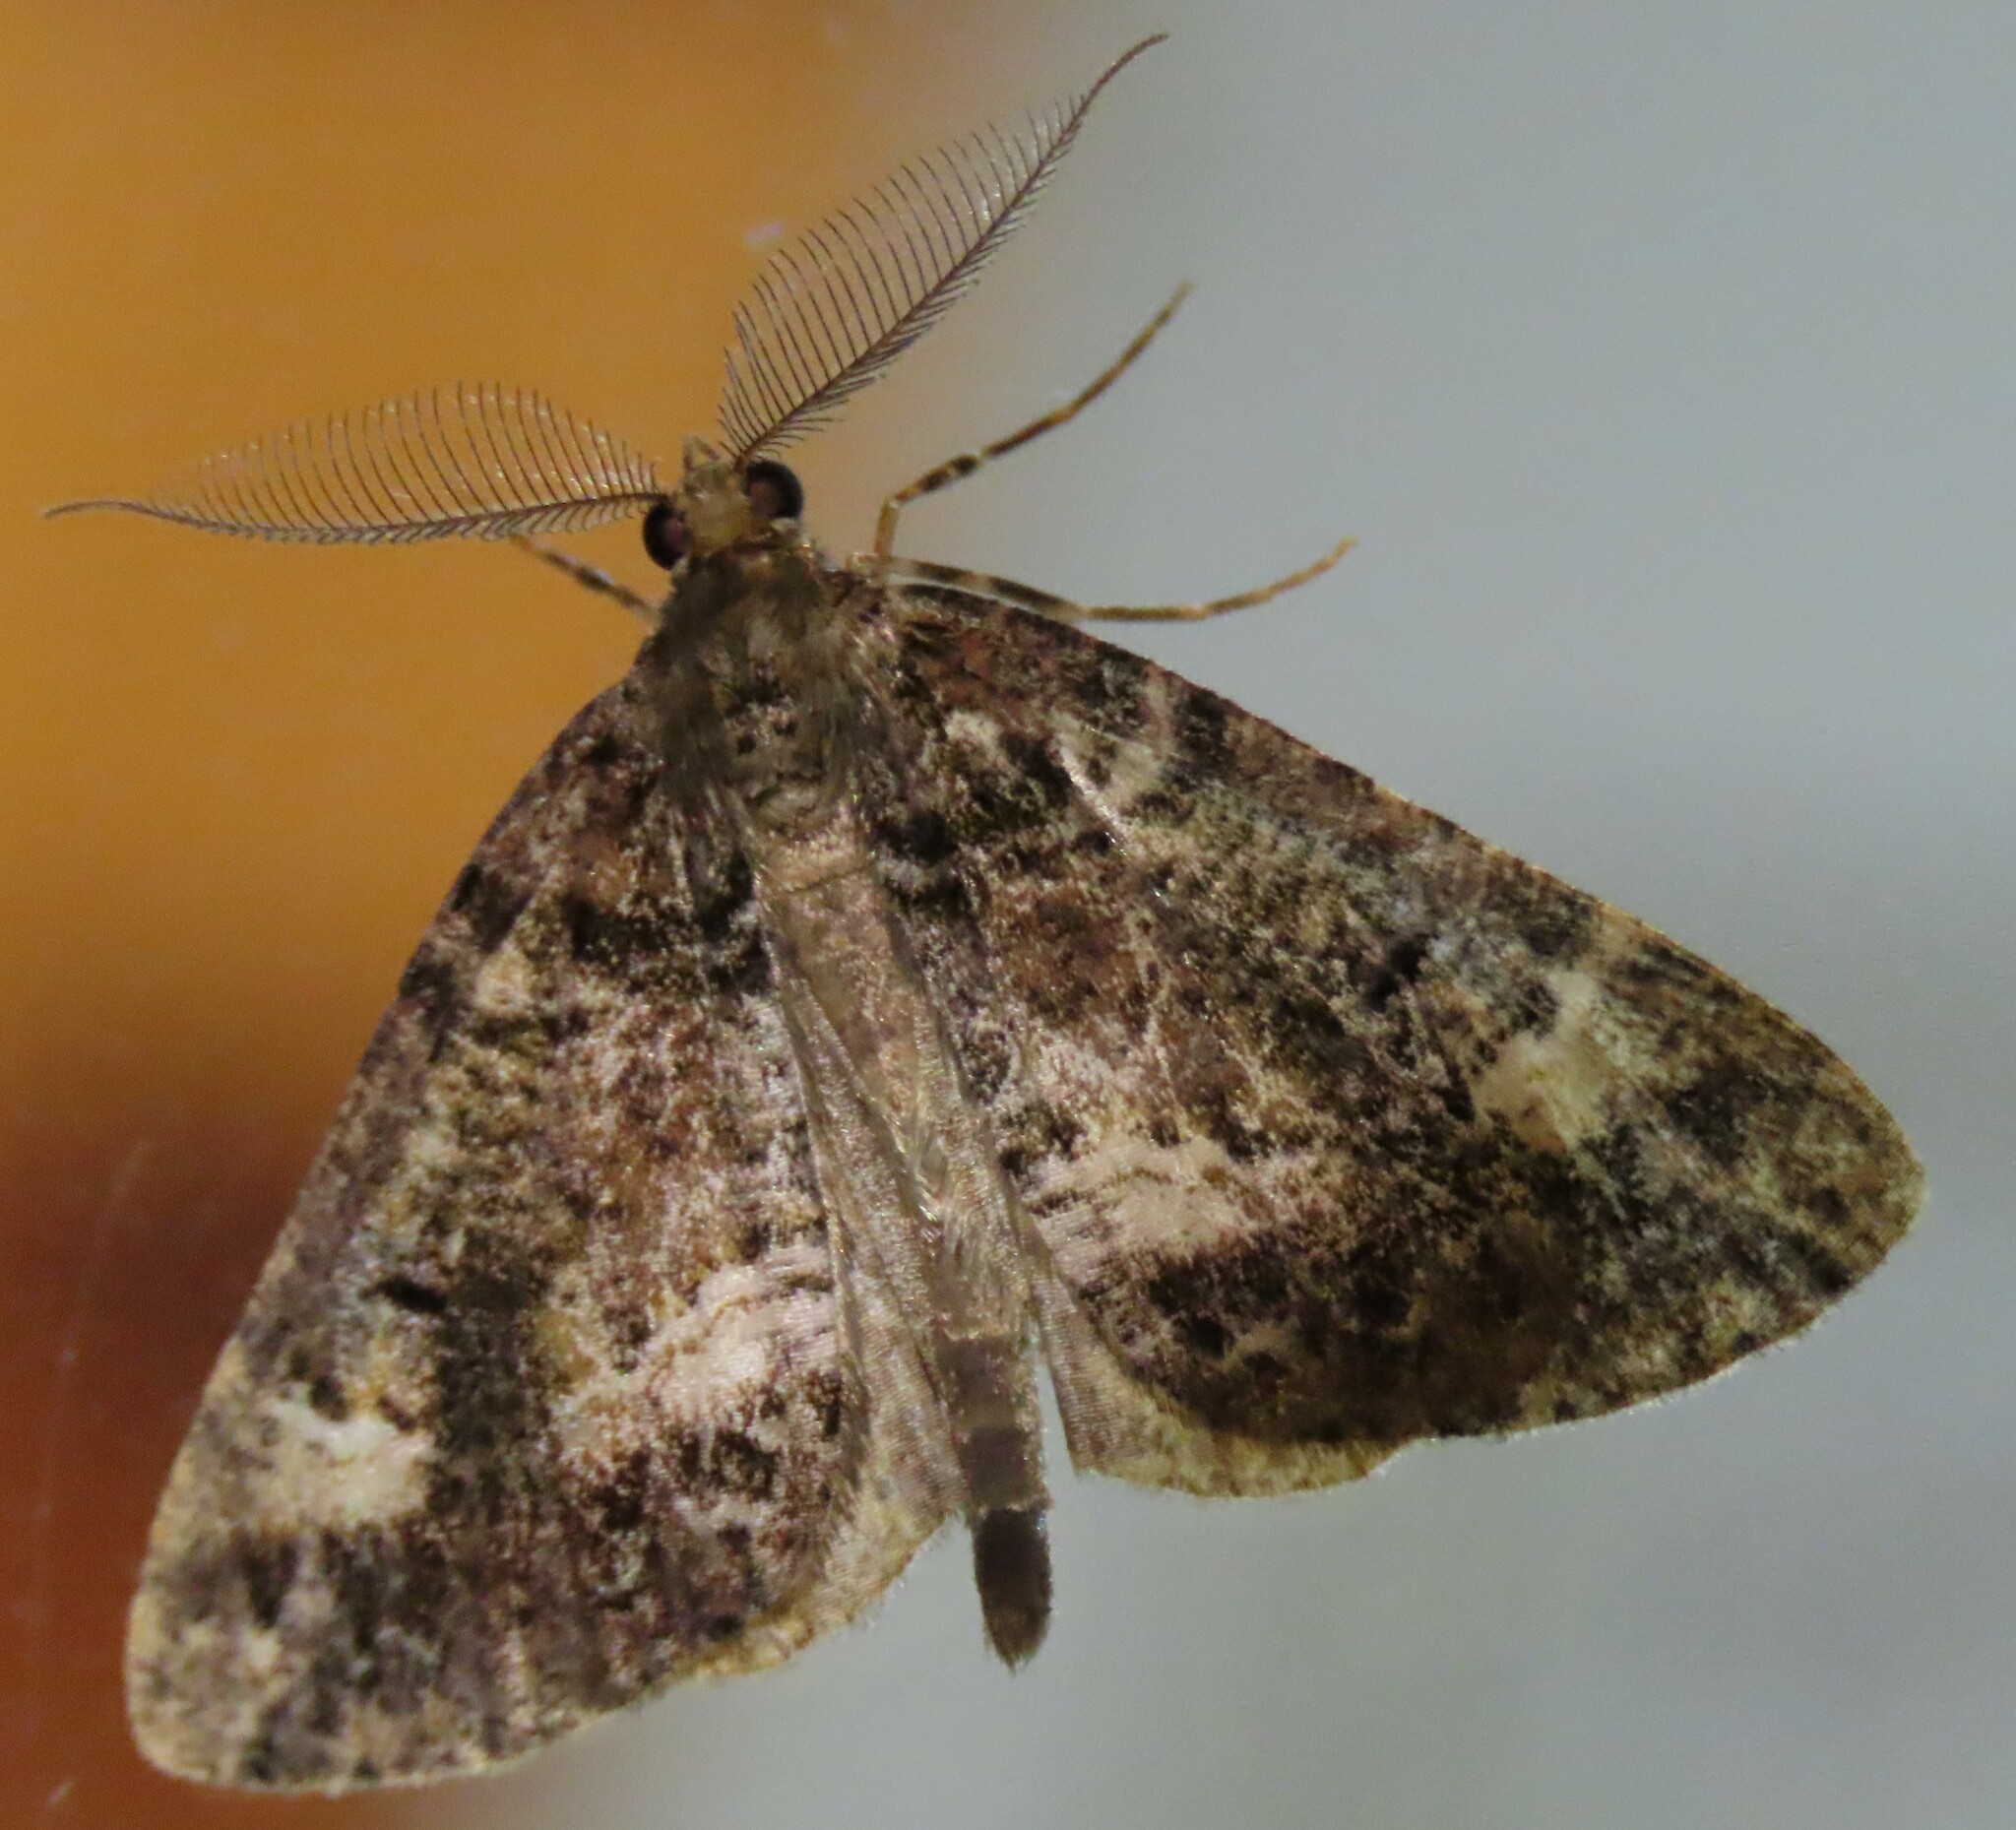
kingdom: Animalia
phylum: Arthropoda
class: Insecta
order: Lepidoptera
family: Geometridae
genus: Pseudocoremia
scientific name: Pseudocoremia productata
